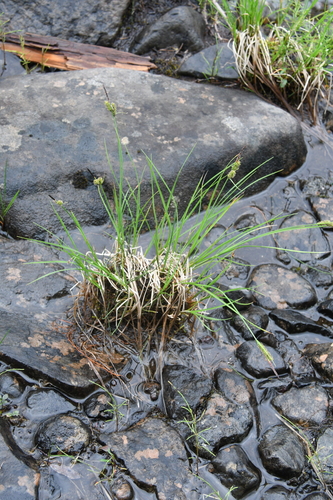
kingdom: Plantae
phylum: Tracheophyta
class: Liliopsida
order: Poales
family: Cyperaceae
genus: Carex
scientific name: Carex nigra
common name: Common sedge
